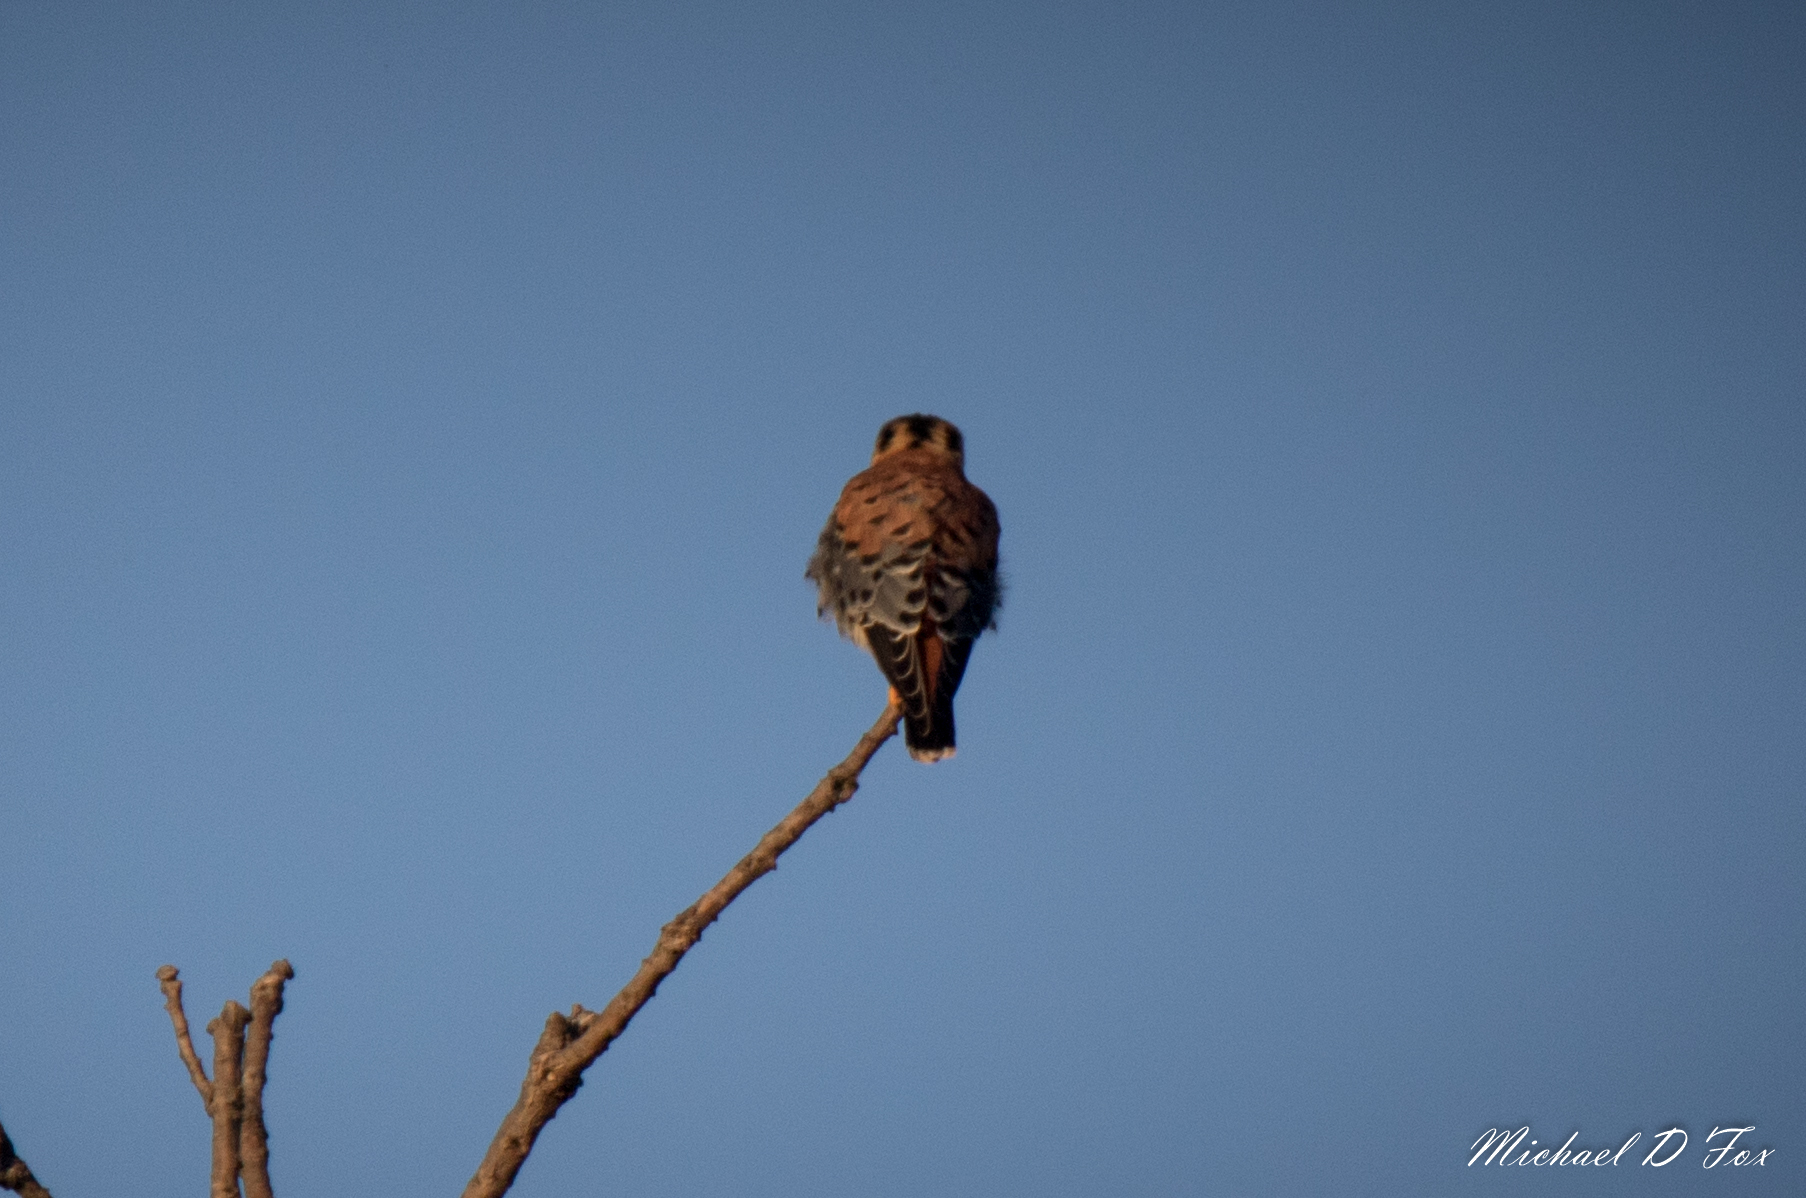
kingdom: Animalia
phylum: Chordata
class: Aves
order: Falconiformes
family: Falconidae
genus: Falco
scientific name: Falco sparverius
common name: American kestrel
